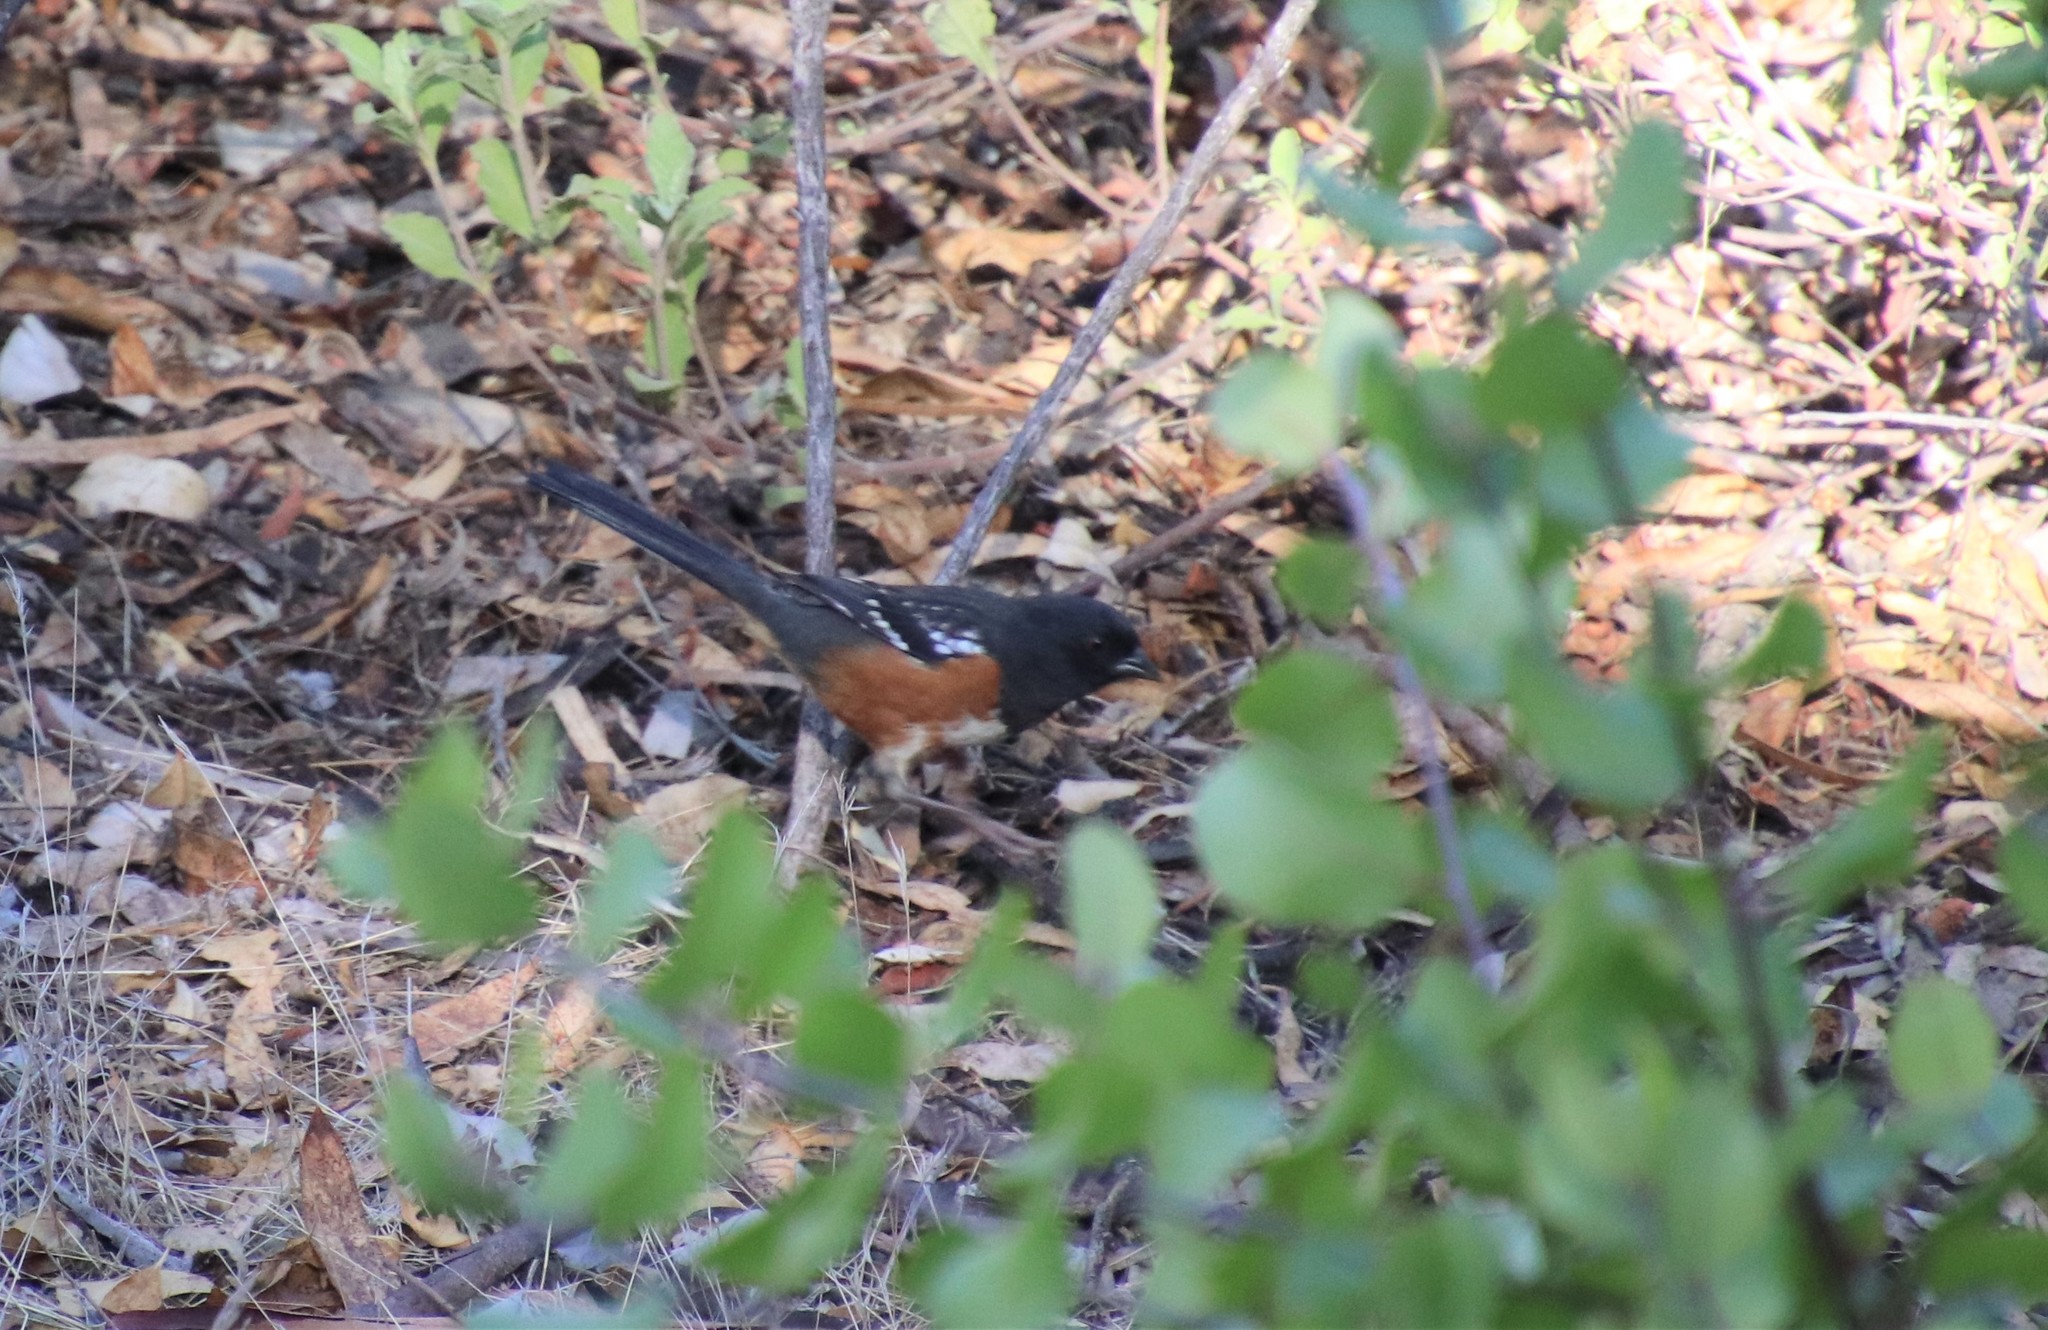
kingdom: Animalia
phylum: Chordata
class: Aves
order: Passeriformes
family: Passerellidae
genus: Pipilo
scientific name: Pipilo maculatus
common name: Spotted towhee
